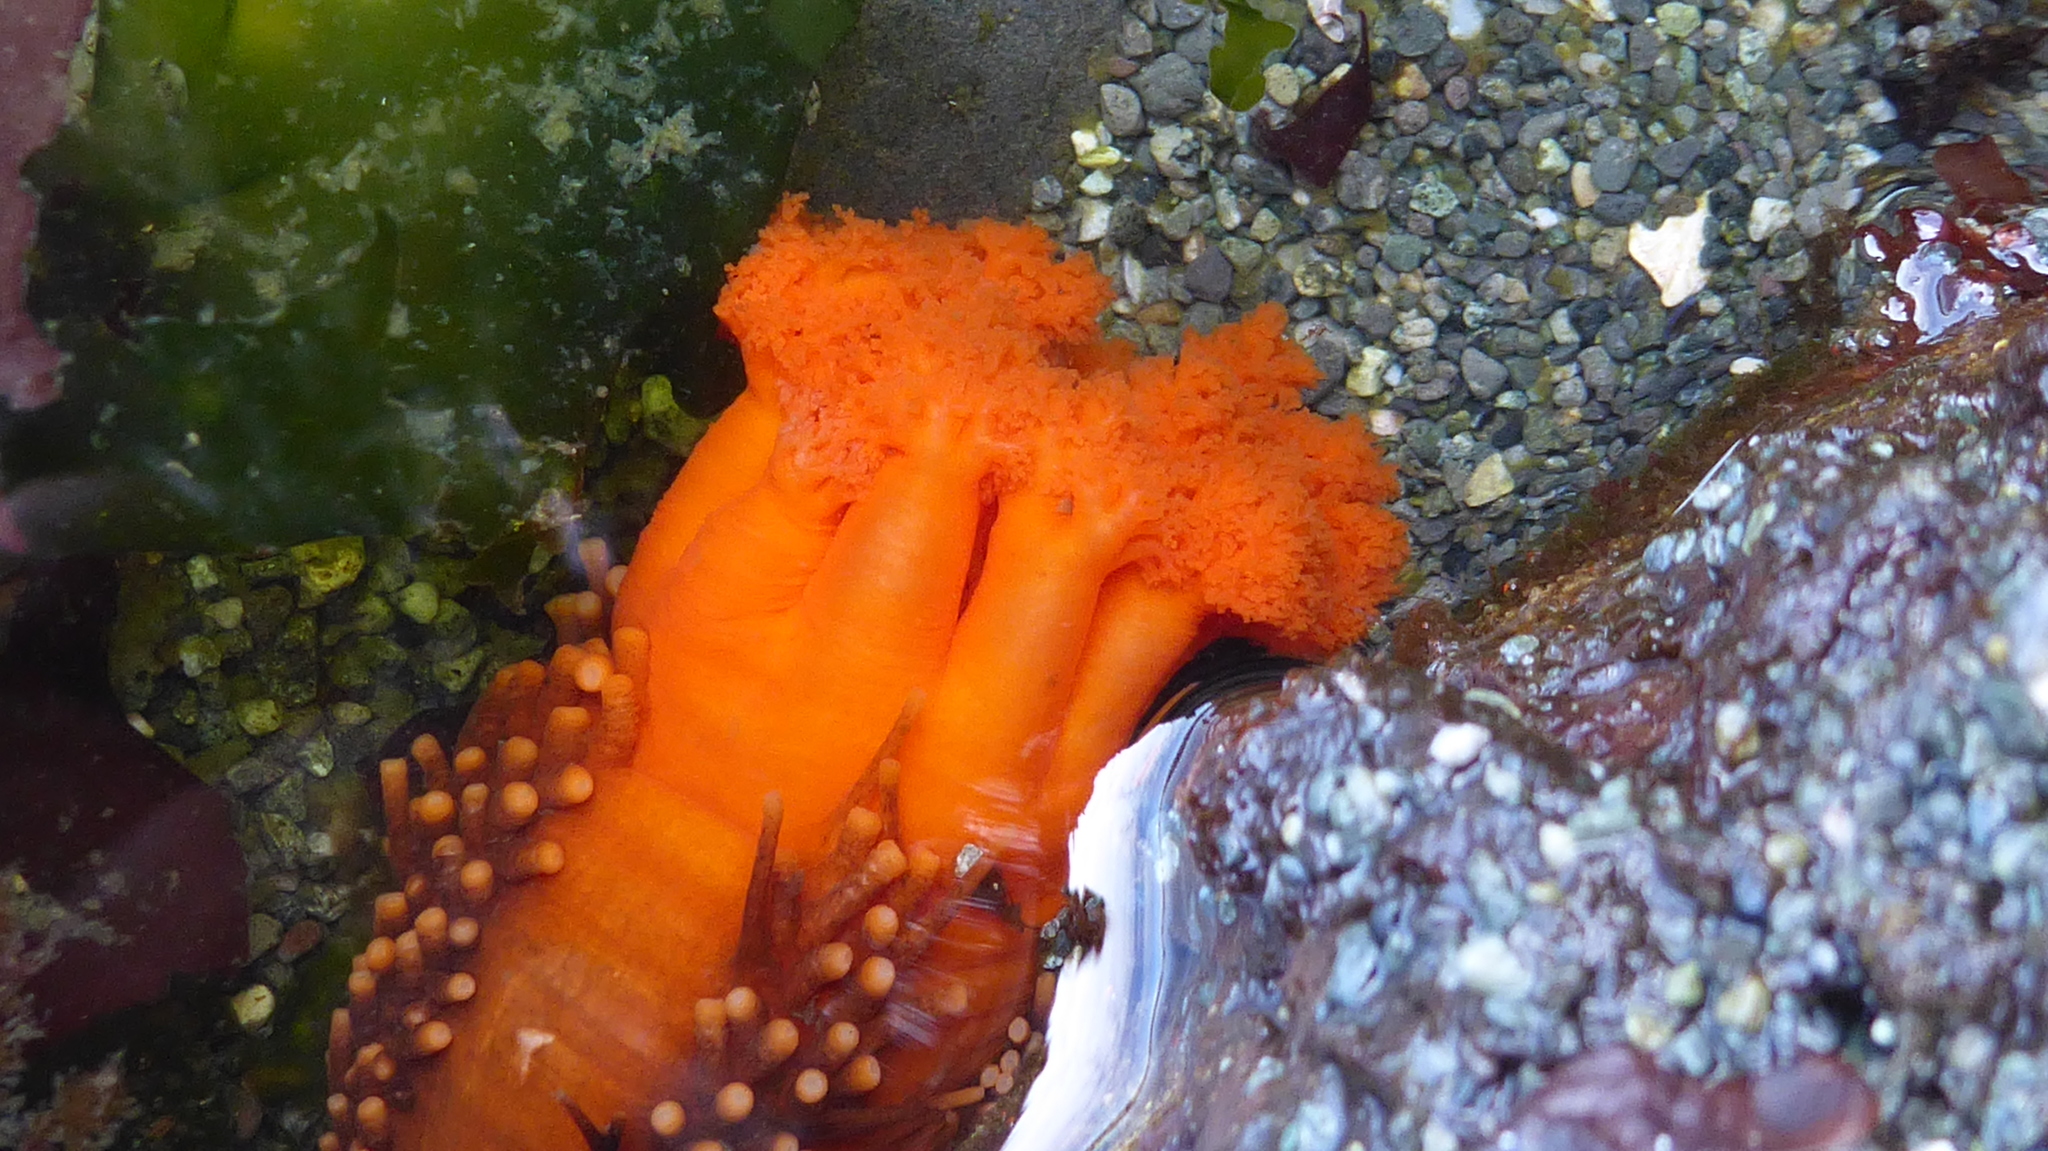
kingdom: Animalia
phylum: Echinodermata
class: Holothuroidea
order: Dendrochirotida
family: Cucumariidae
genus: Cucumaria
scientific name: Cucumaria miniata
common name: Orange sea cucumber
